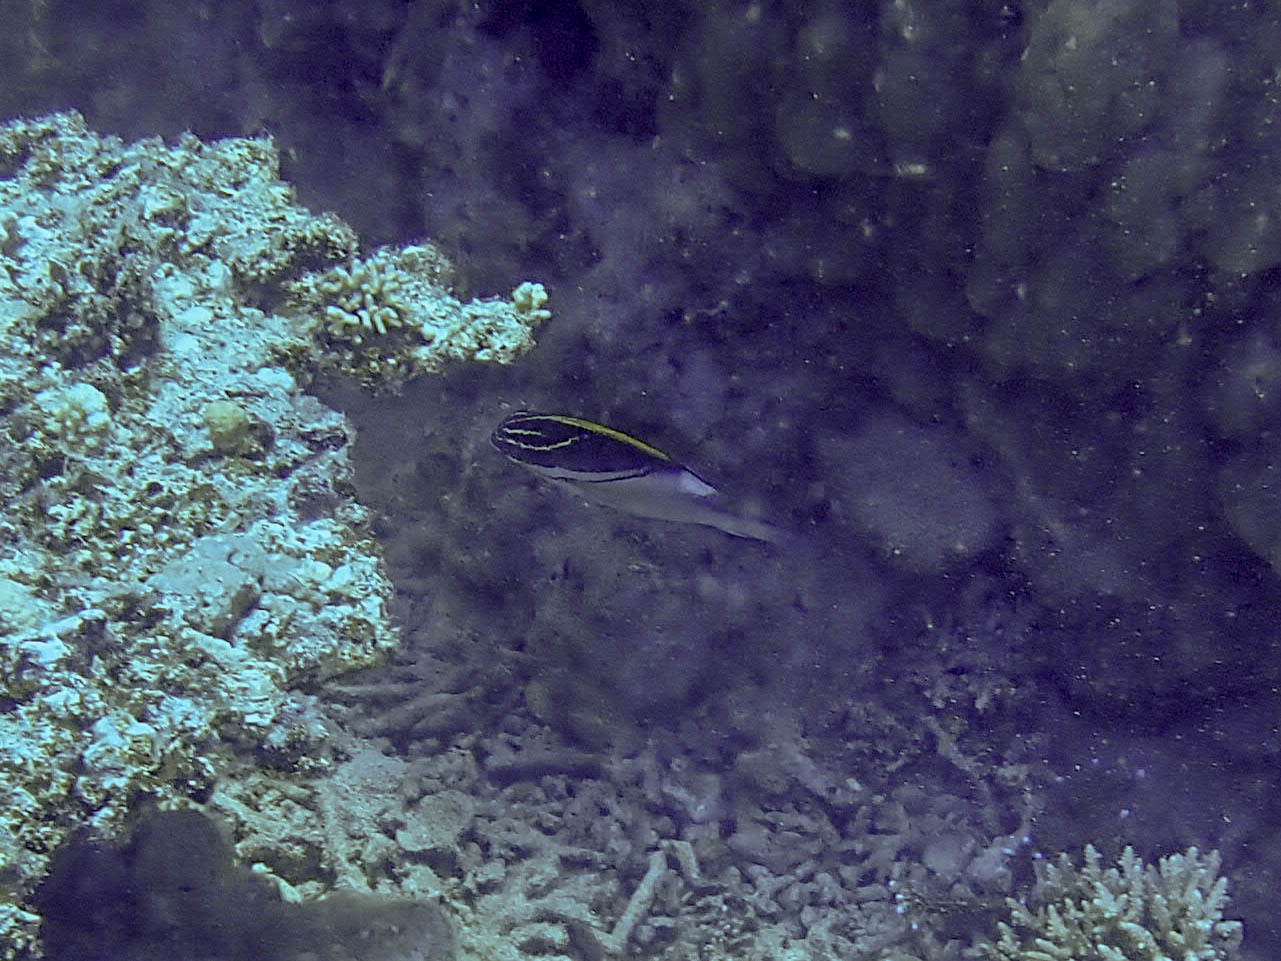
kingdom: Animalia
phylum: Chordata
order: Perciformes
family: Nemipteridae
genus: Scolopsis
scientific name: Scolopsis bilineata
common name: Two-lined monocle bream
